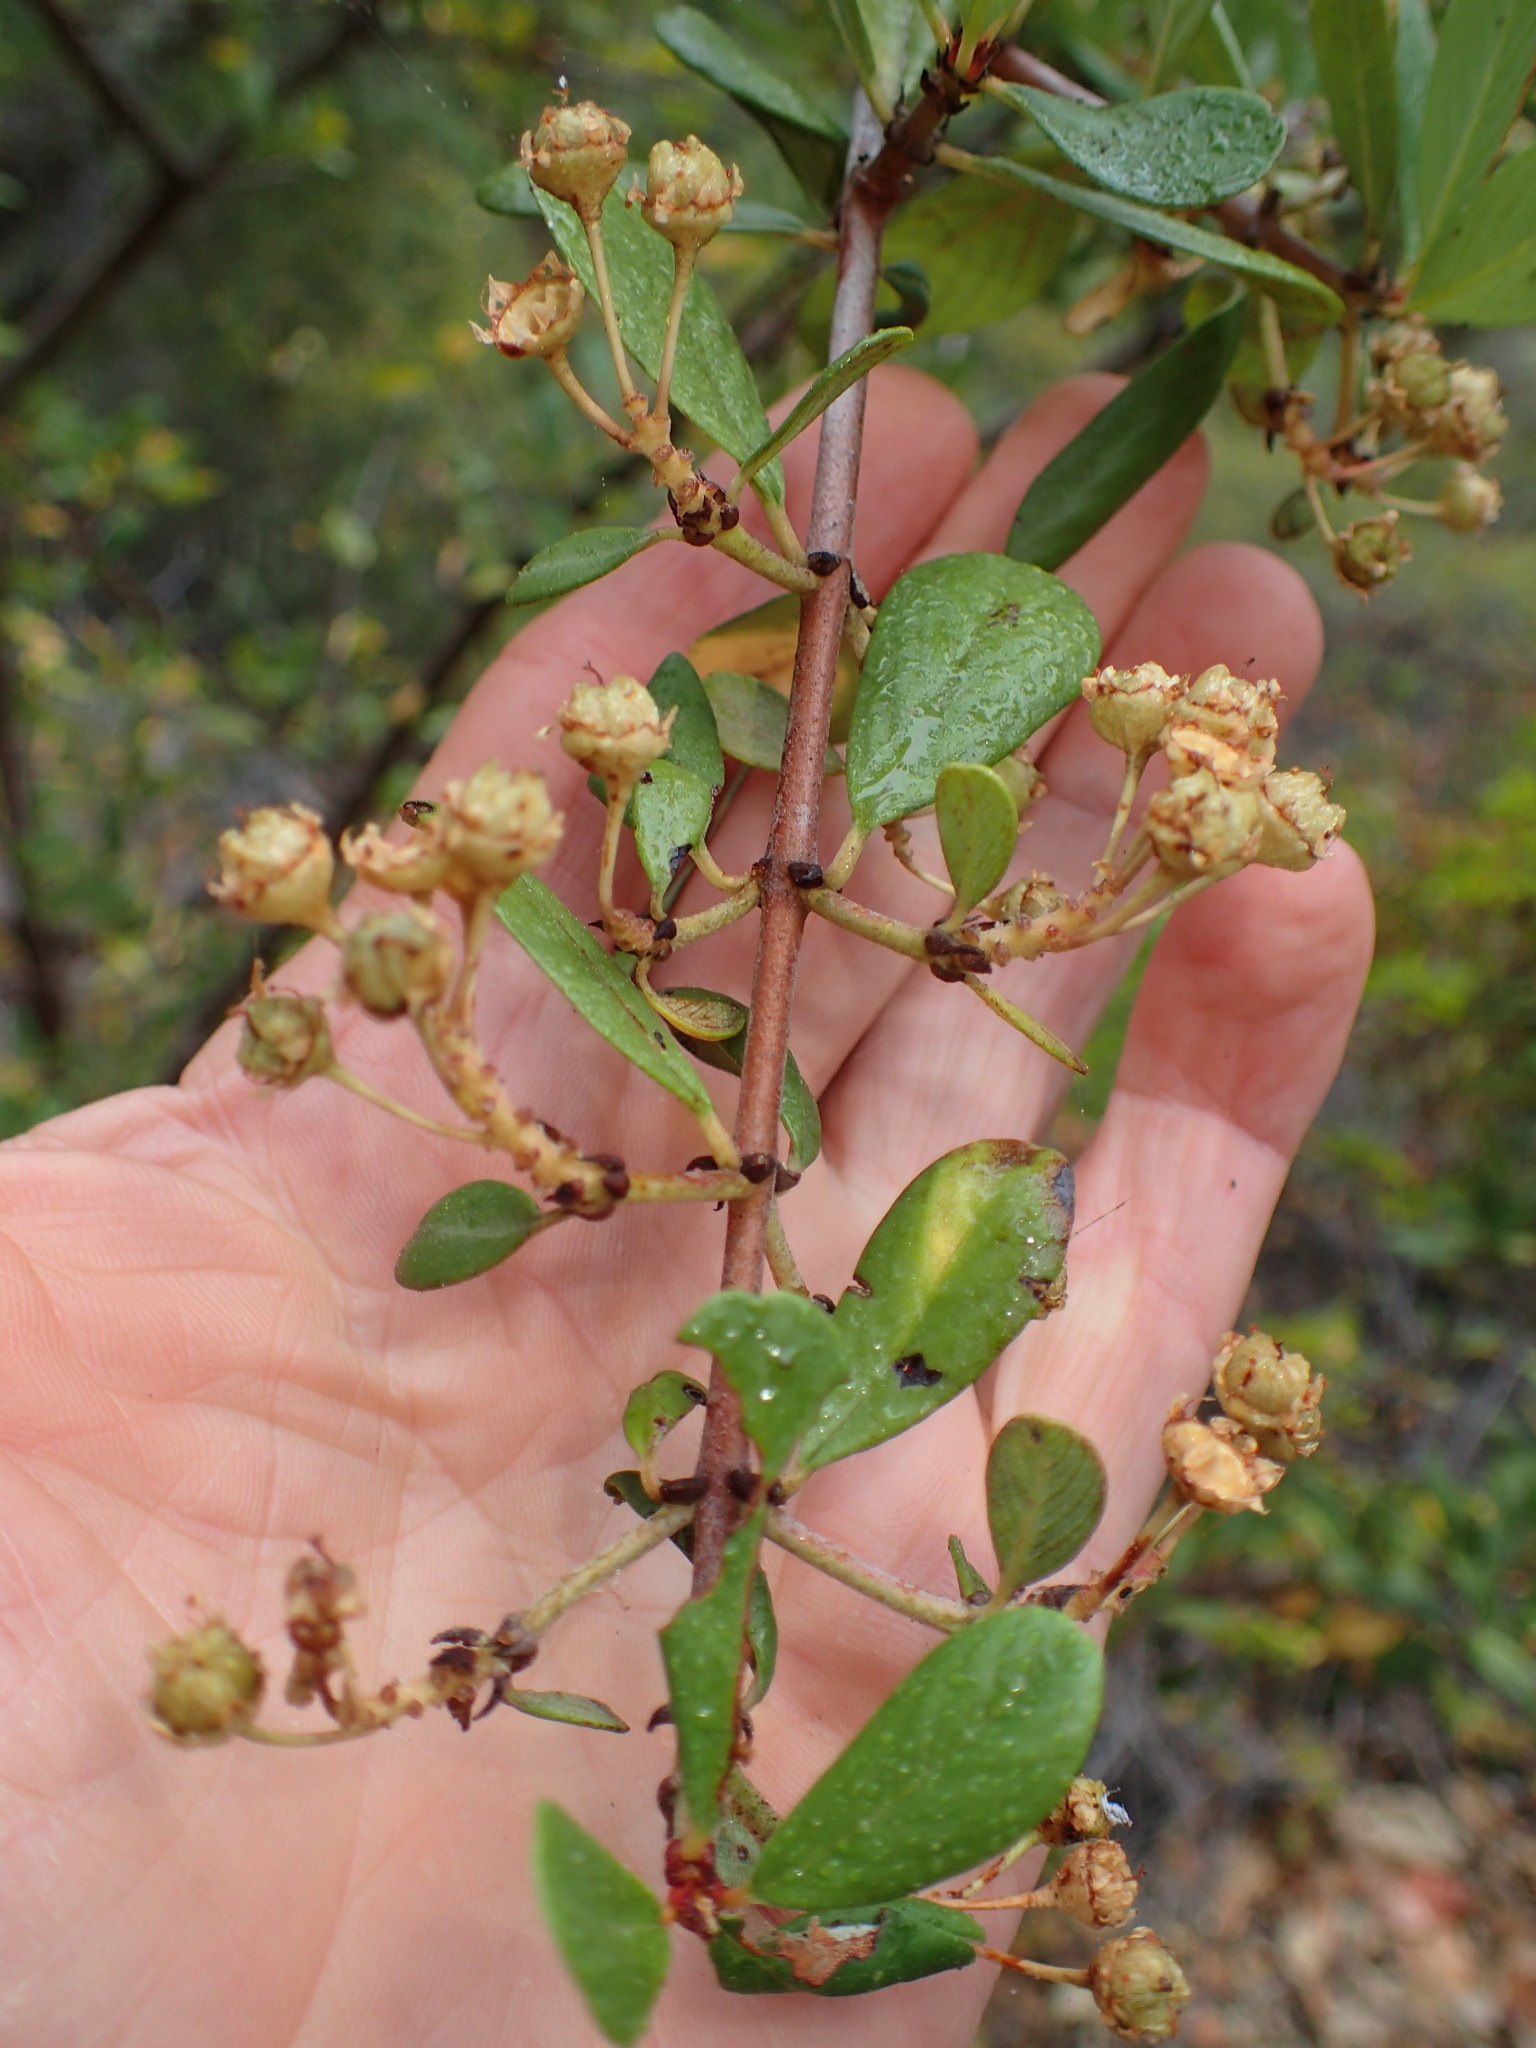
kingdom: Plantae
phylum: Tracheophyta
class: Magnoliopsida
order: Rosales
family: Rhamnaceae
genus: Ceanothus
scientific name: Ceanothus cuneatus
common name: Cuneate ceanothus
